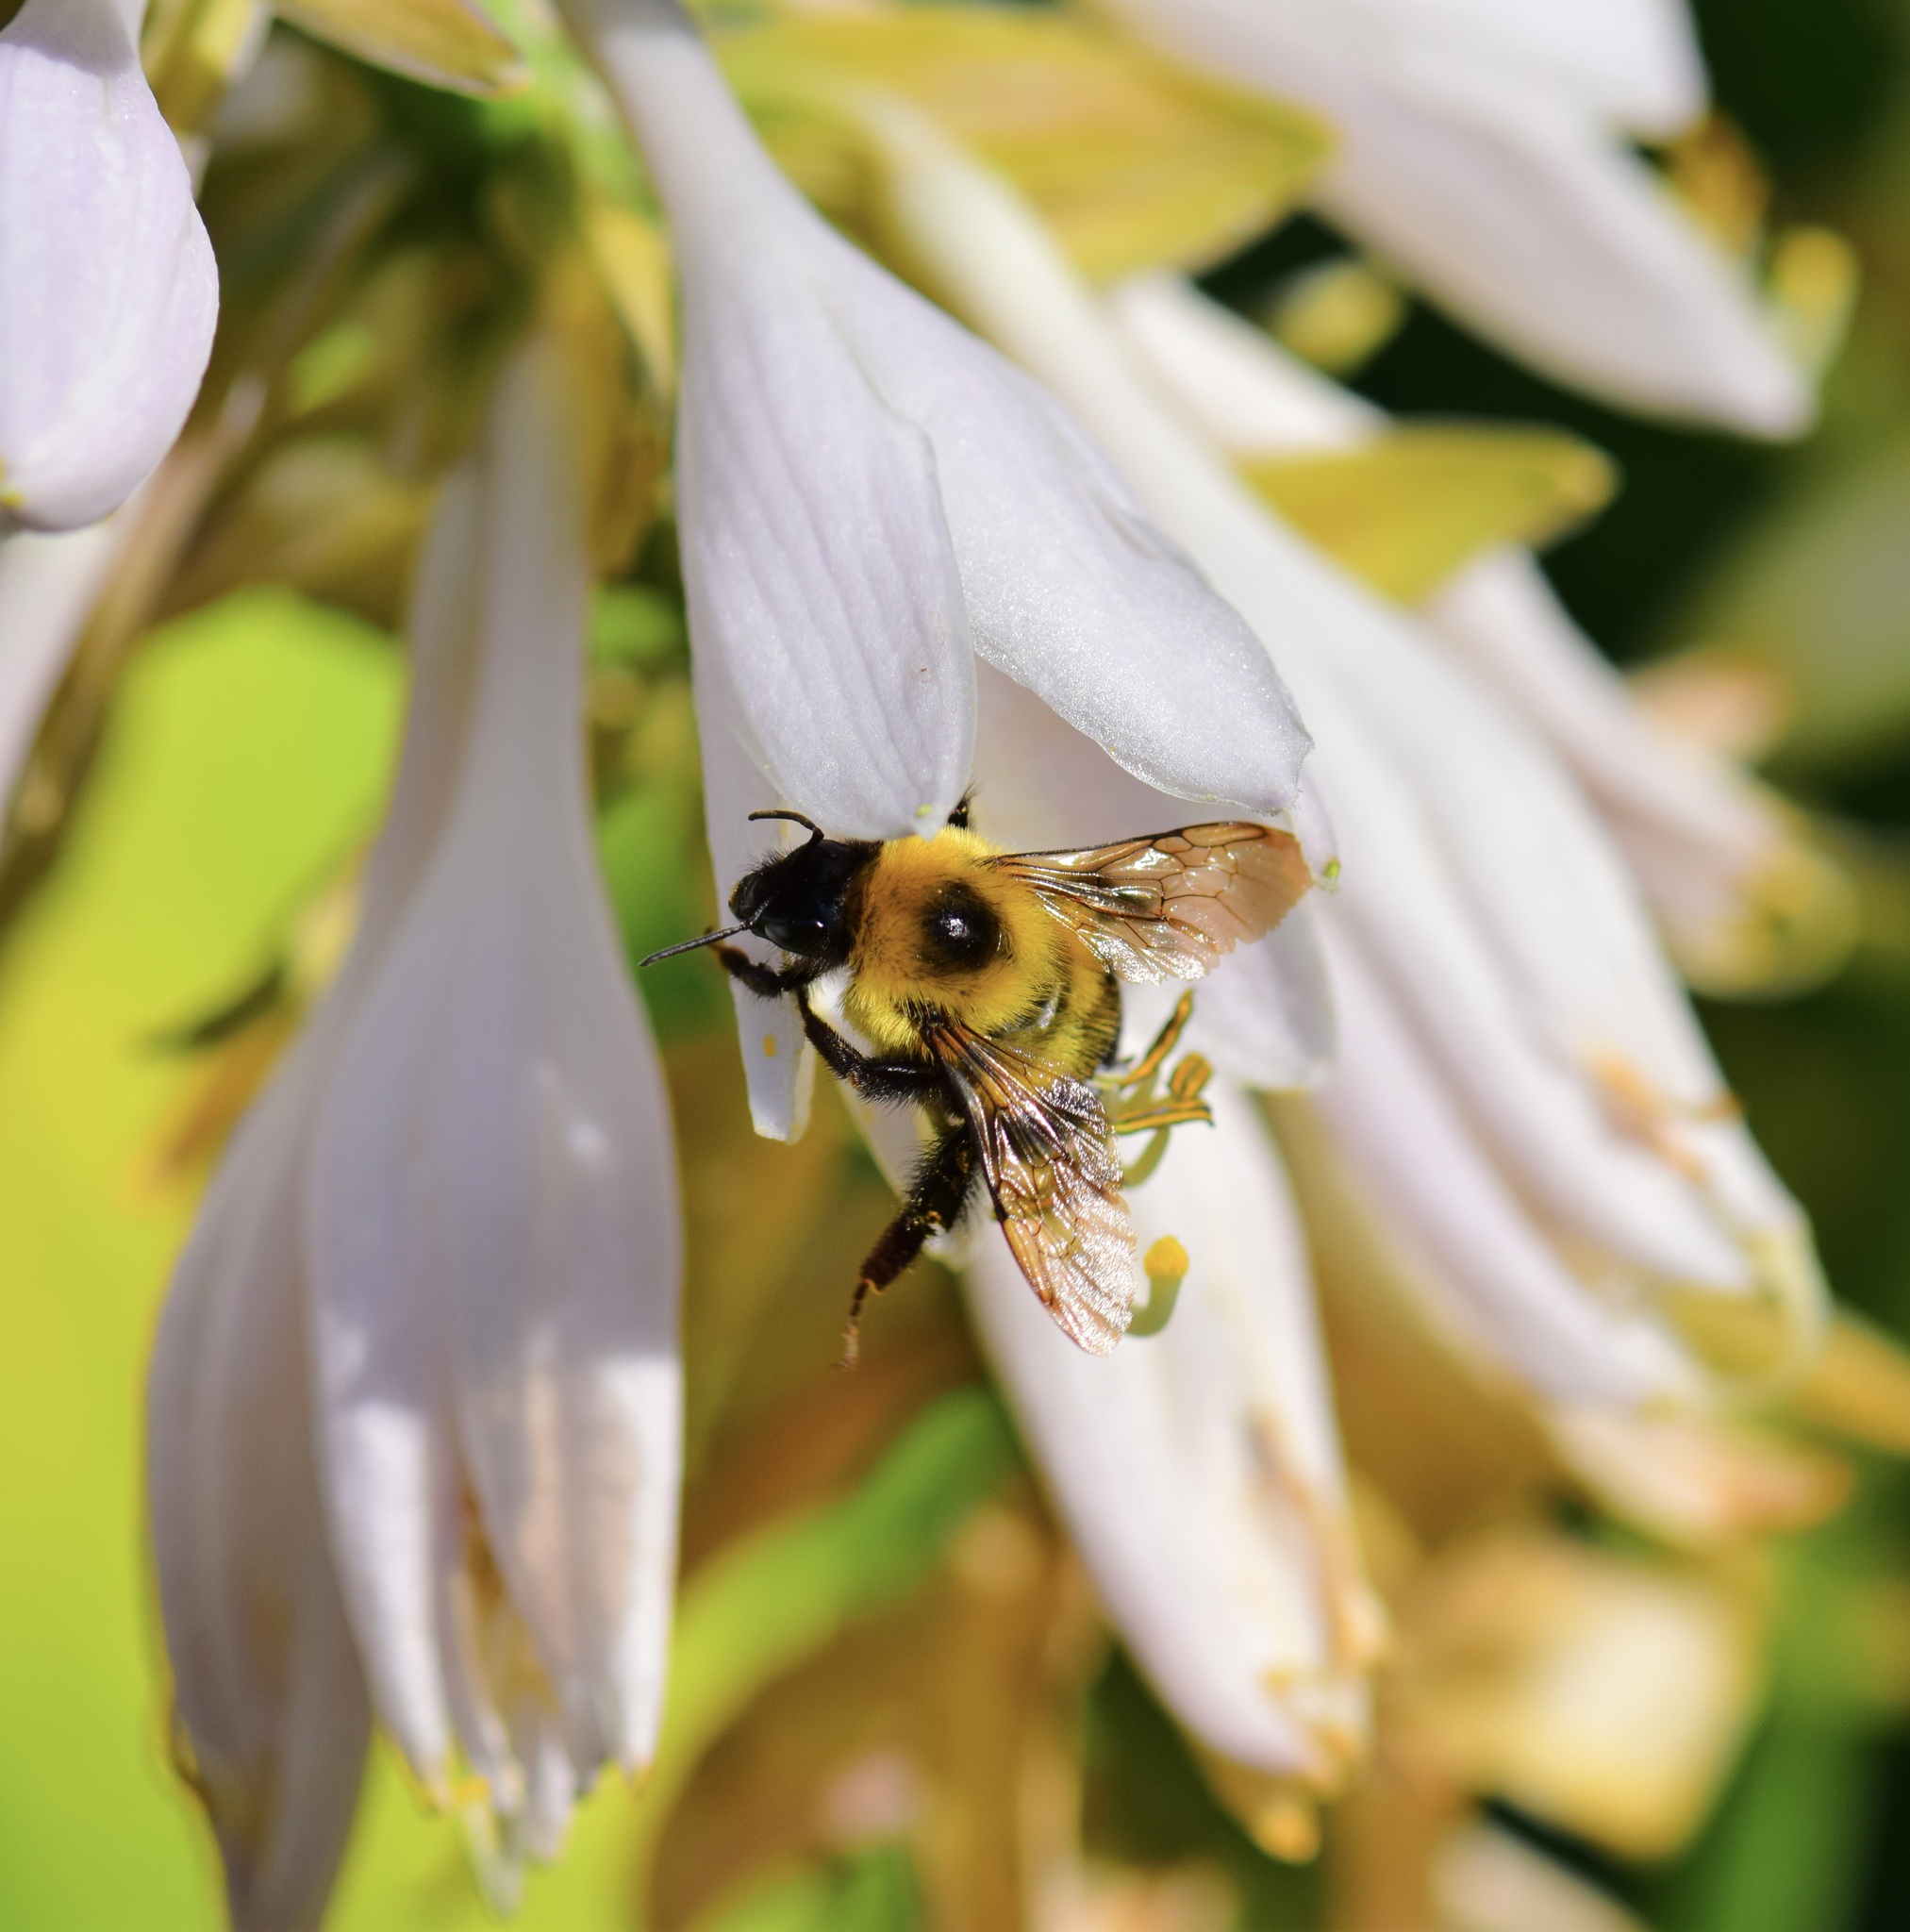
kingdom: Animalia
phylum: Arthropoda
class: Insecta
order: Hymenoptera
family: Apidae
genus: Bombus
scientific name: Bombus bimaculatus
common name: Two-spotted bumble bee
